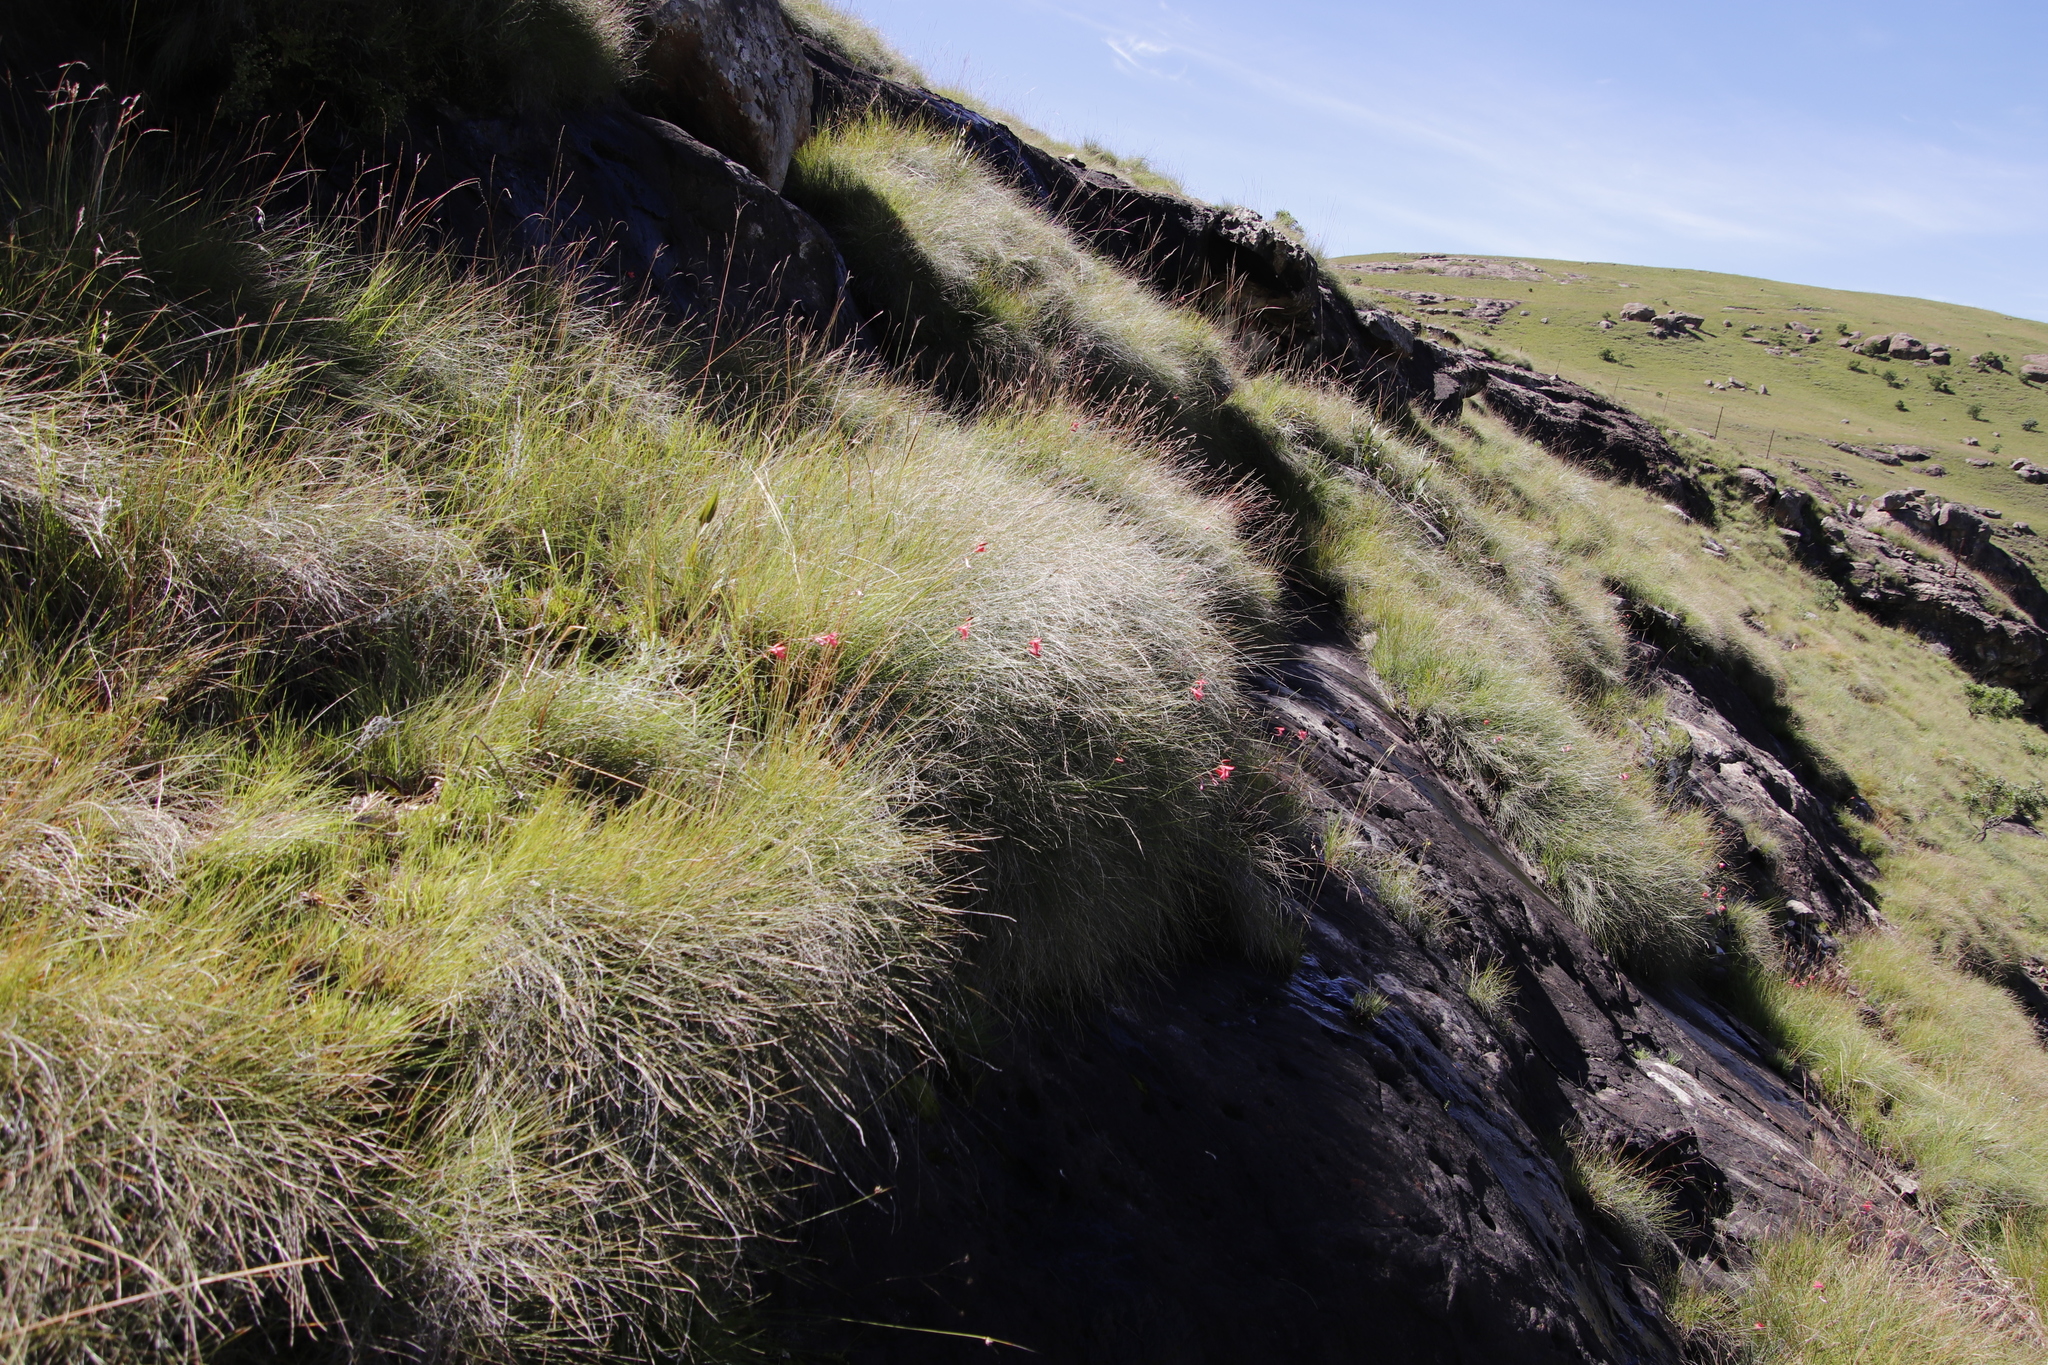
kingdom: Plantae
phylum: Tracheophyta
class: Liliopsida
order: Asparagales
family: Iridaceae
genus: Tritonia
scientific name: Tritonia drakensbergensis
